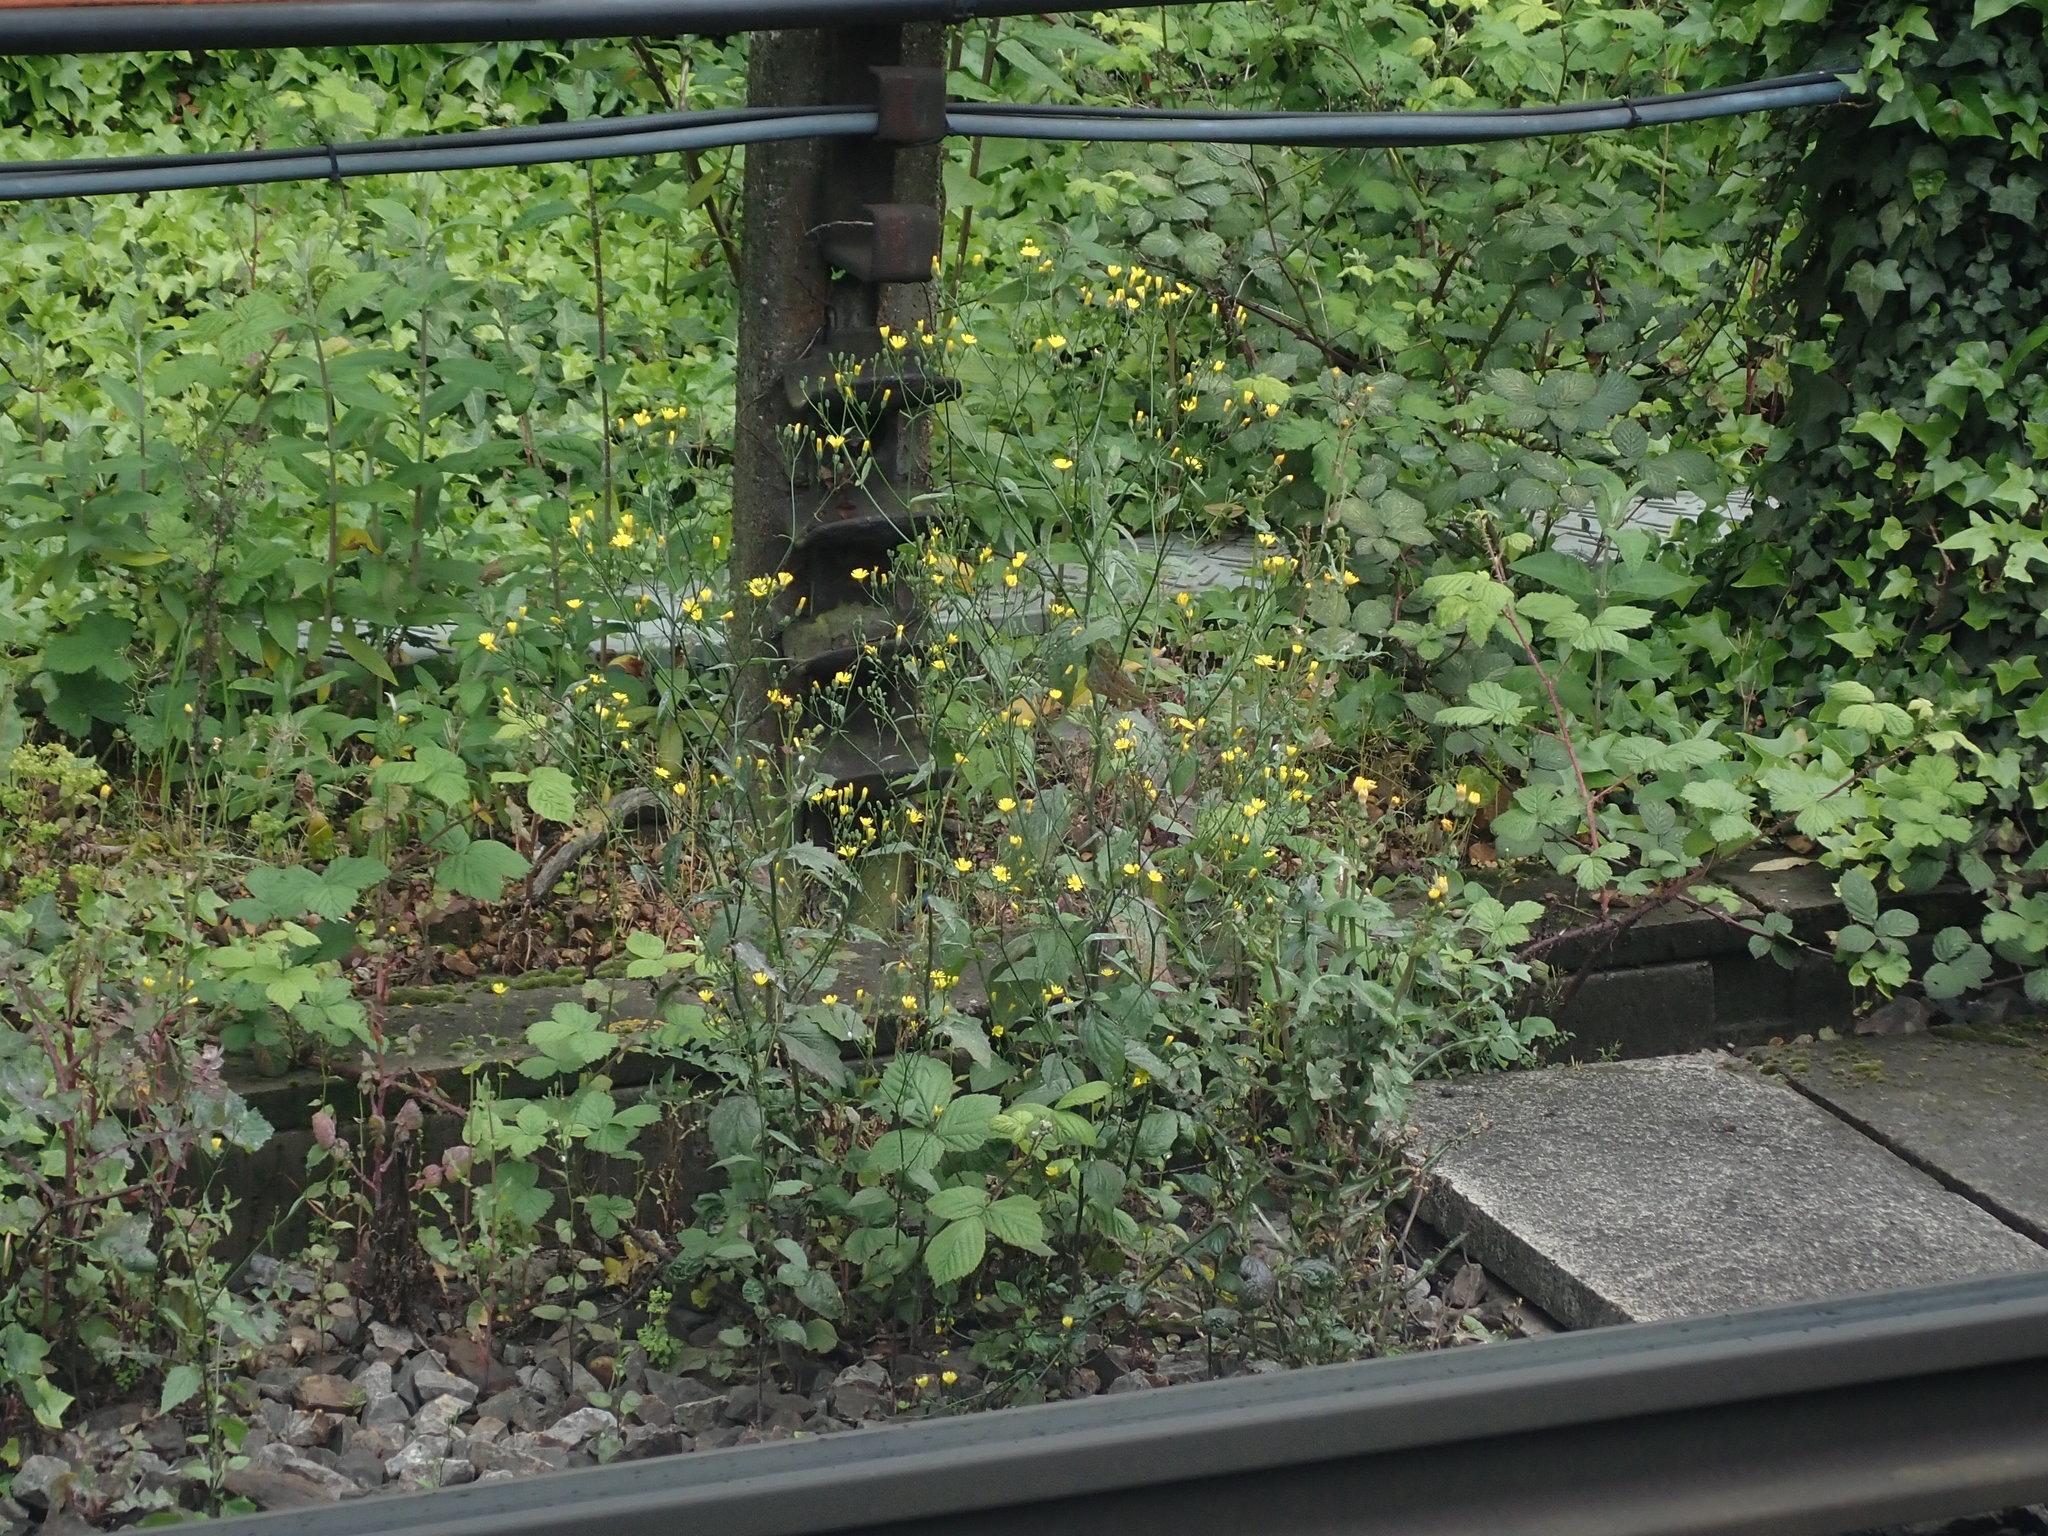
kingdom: Plantae
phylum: Tracheophyta
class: Magnoliopsida
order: Asterales
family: Asteraceae
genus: Lapsana
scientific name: Lapsana communis
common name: Nipplewort
